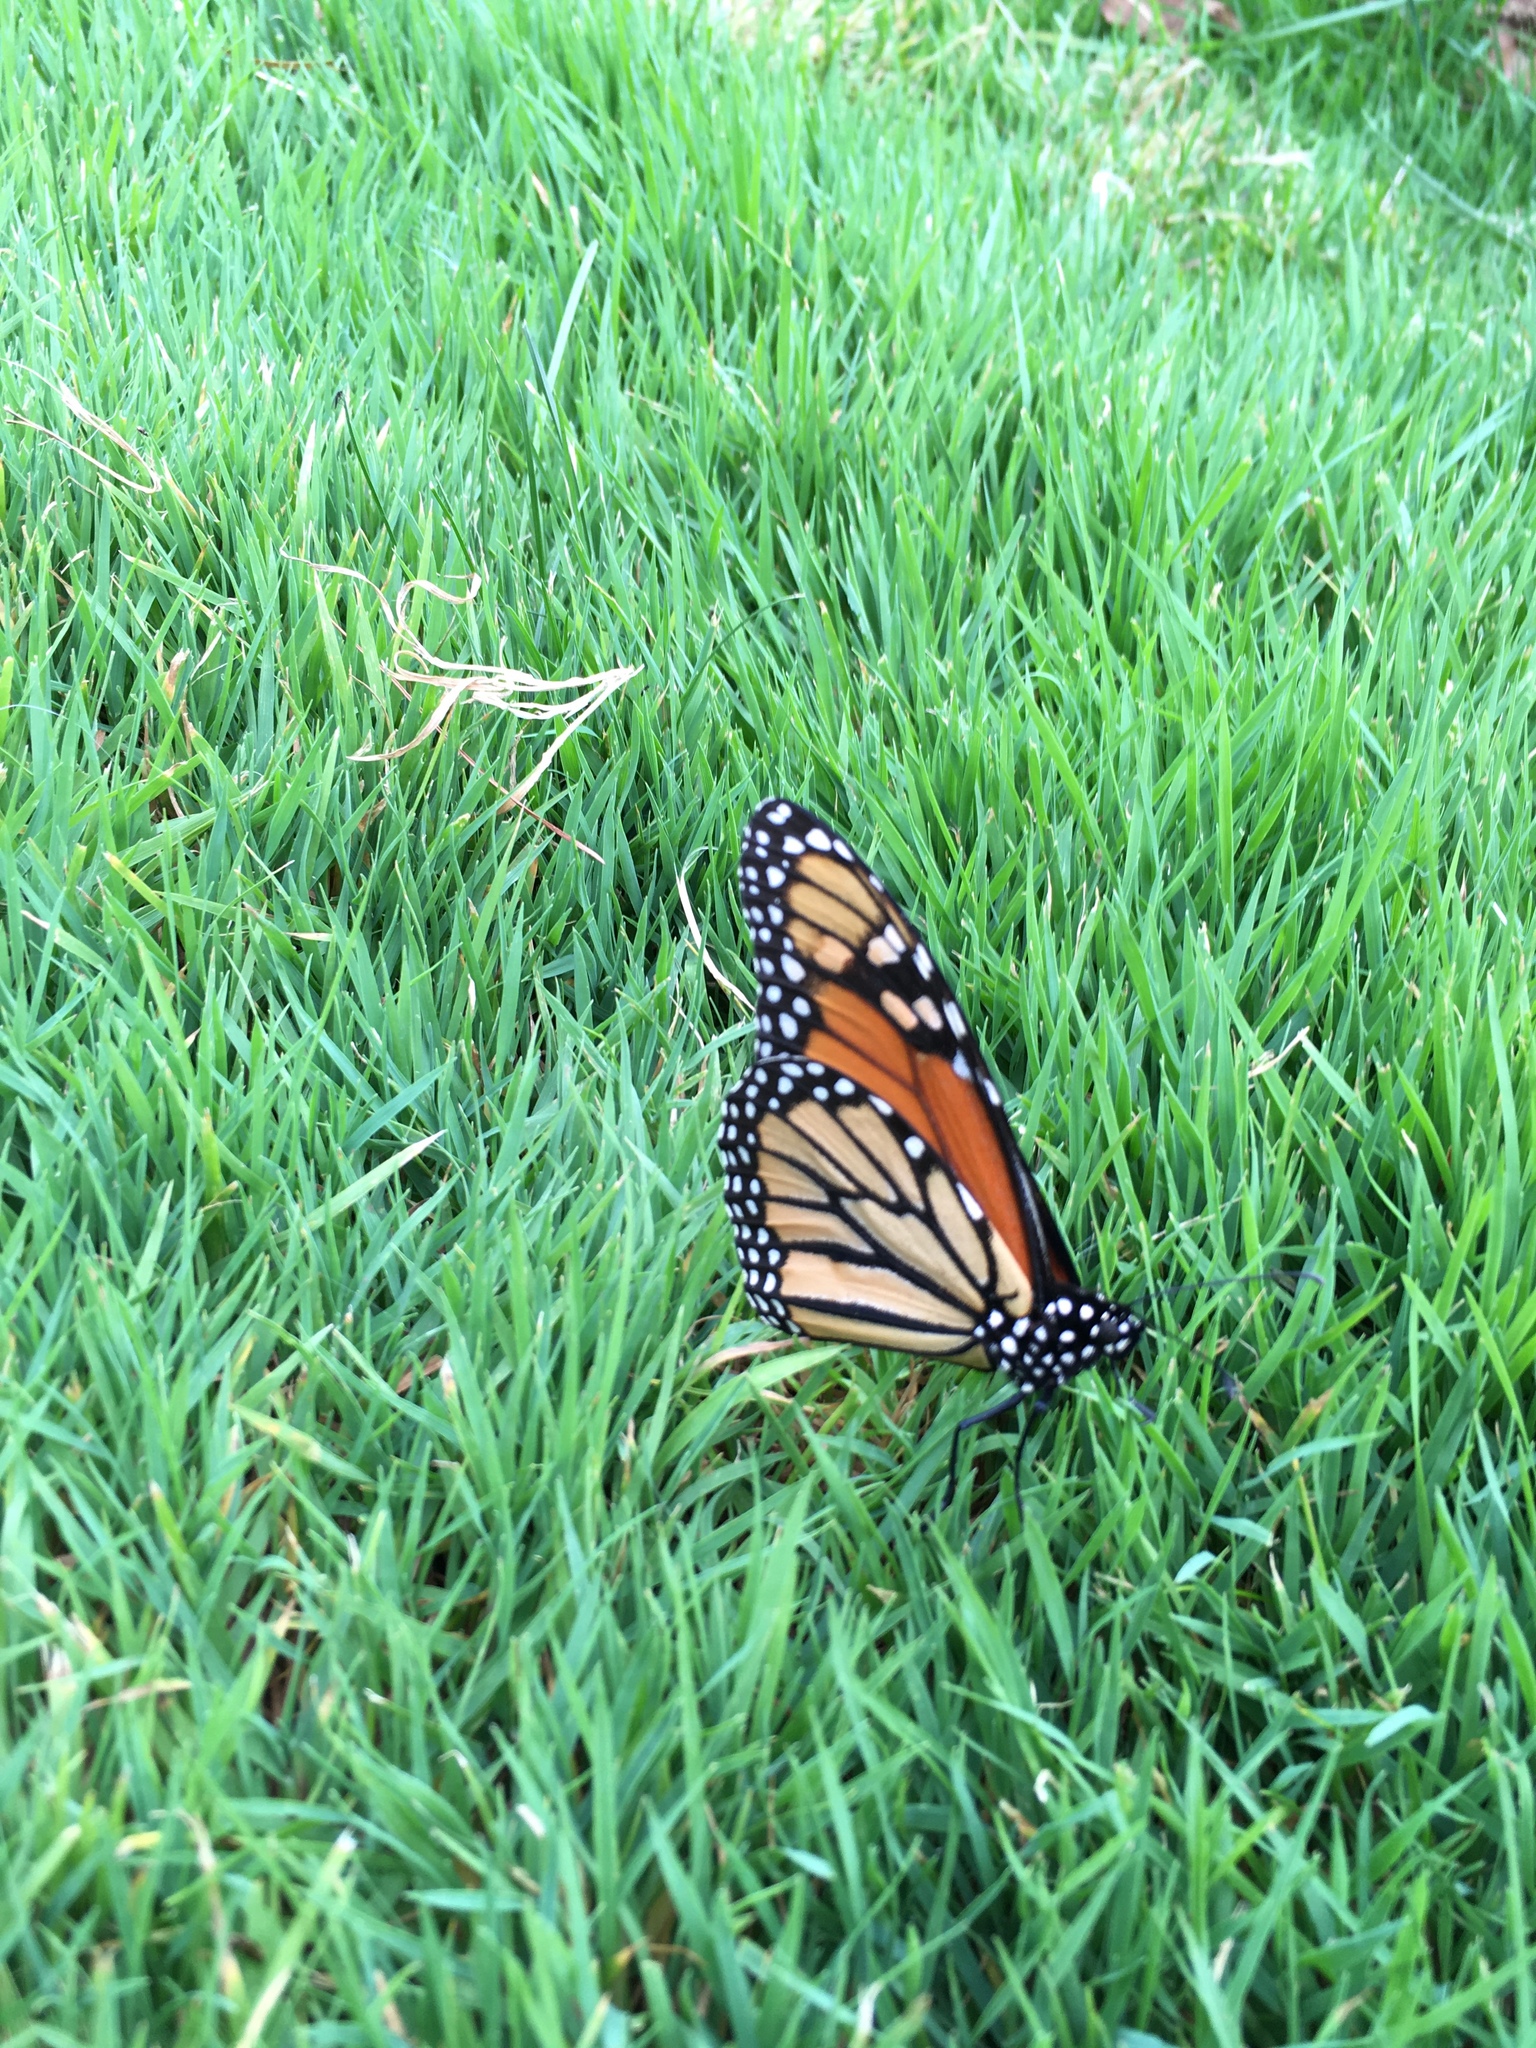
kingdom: Animalia
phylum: Arthropoda
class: Insecta
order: Lepidoptera
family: Nymphalidae
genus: Danaus
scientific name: Danaus plexippus
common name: Monarch
